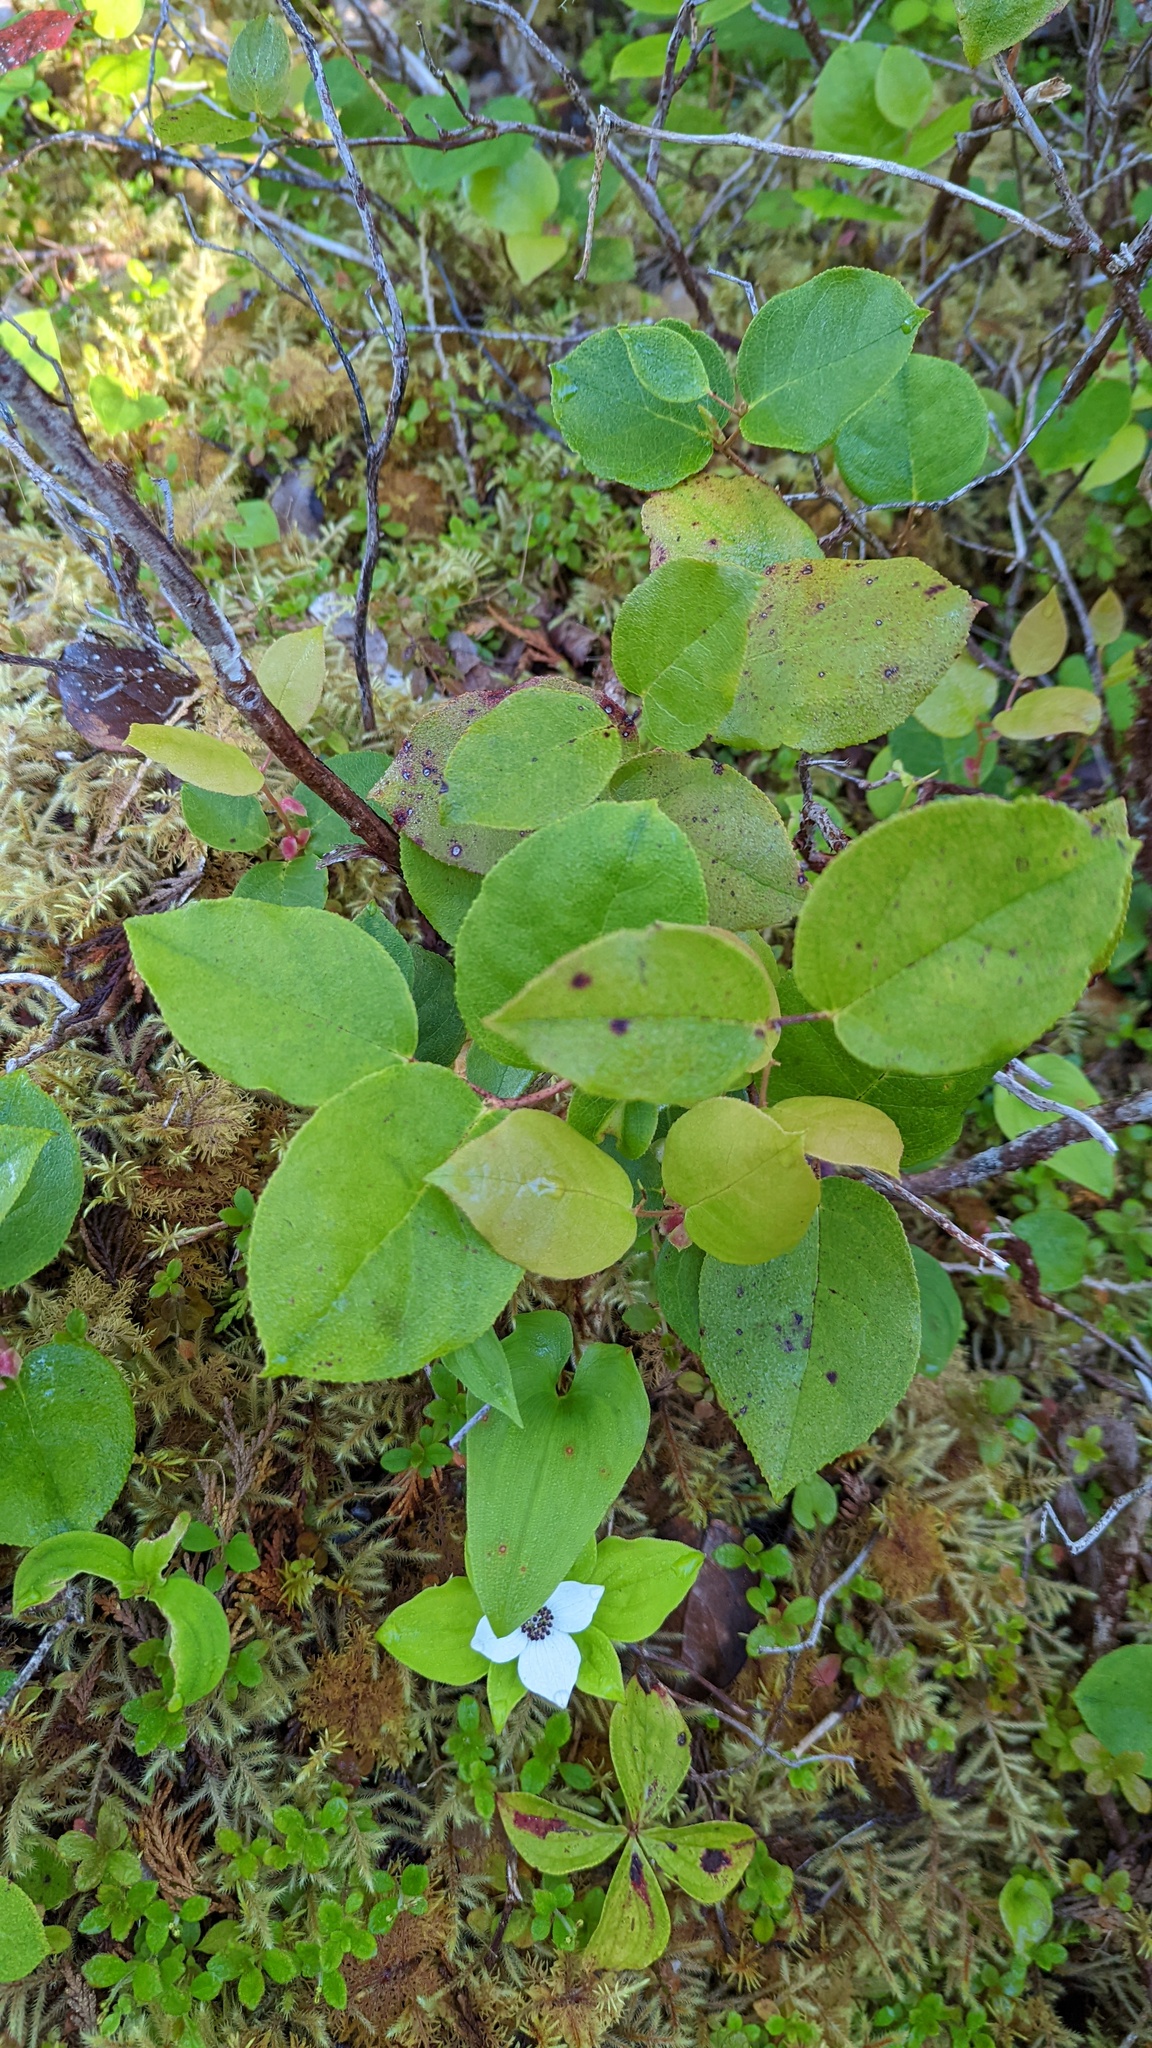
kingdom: Plantae
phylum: Tracheophyta
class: Magnoliopsida
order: Ericales
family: Ericaceae
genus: Gaultheria
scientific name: Gaultheria shallon
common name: Shallon
